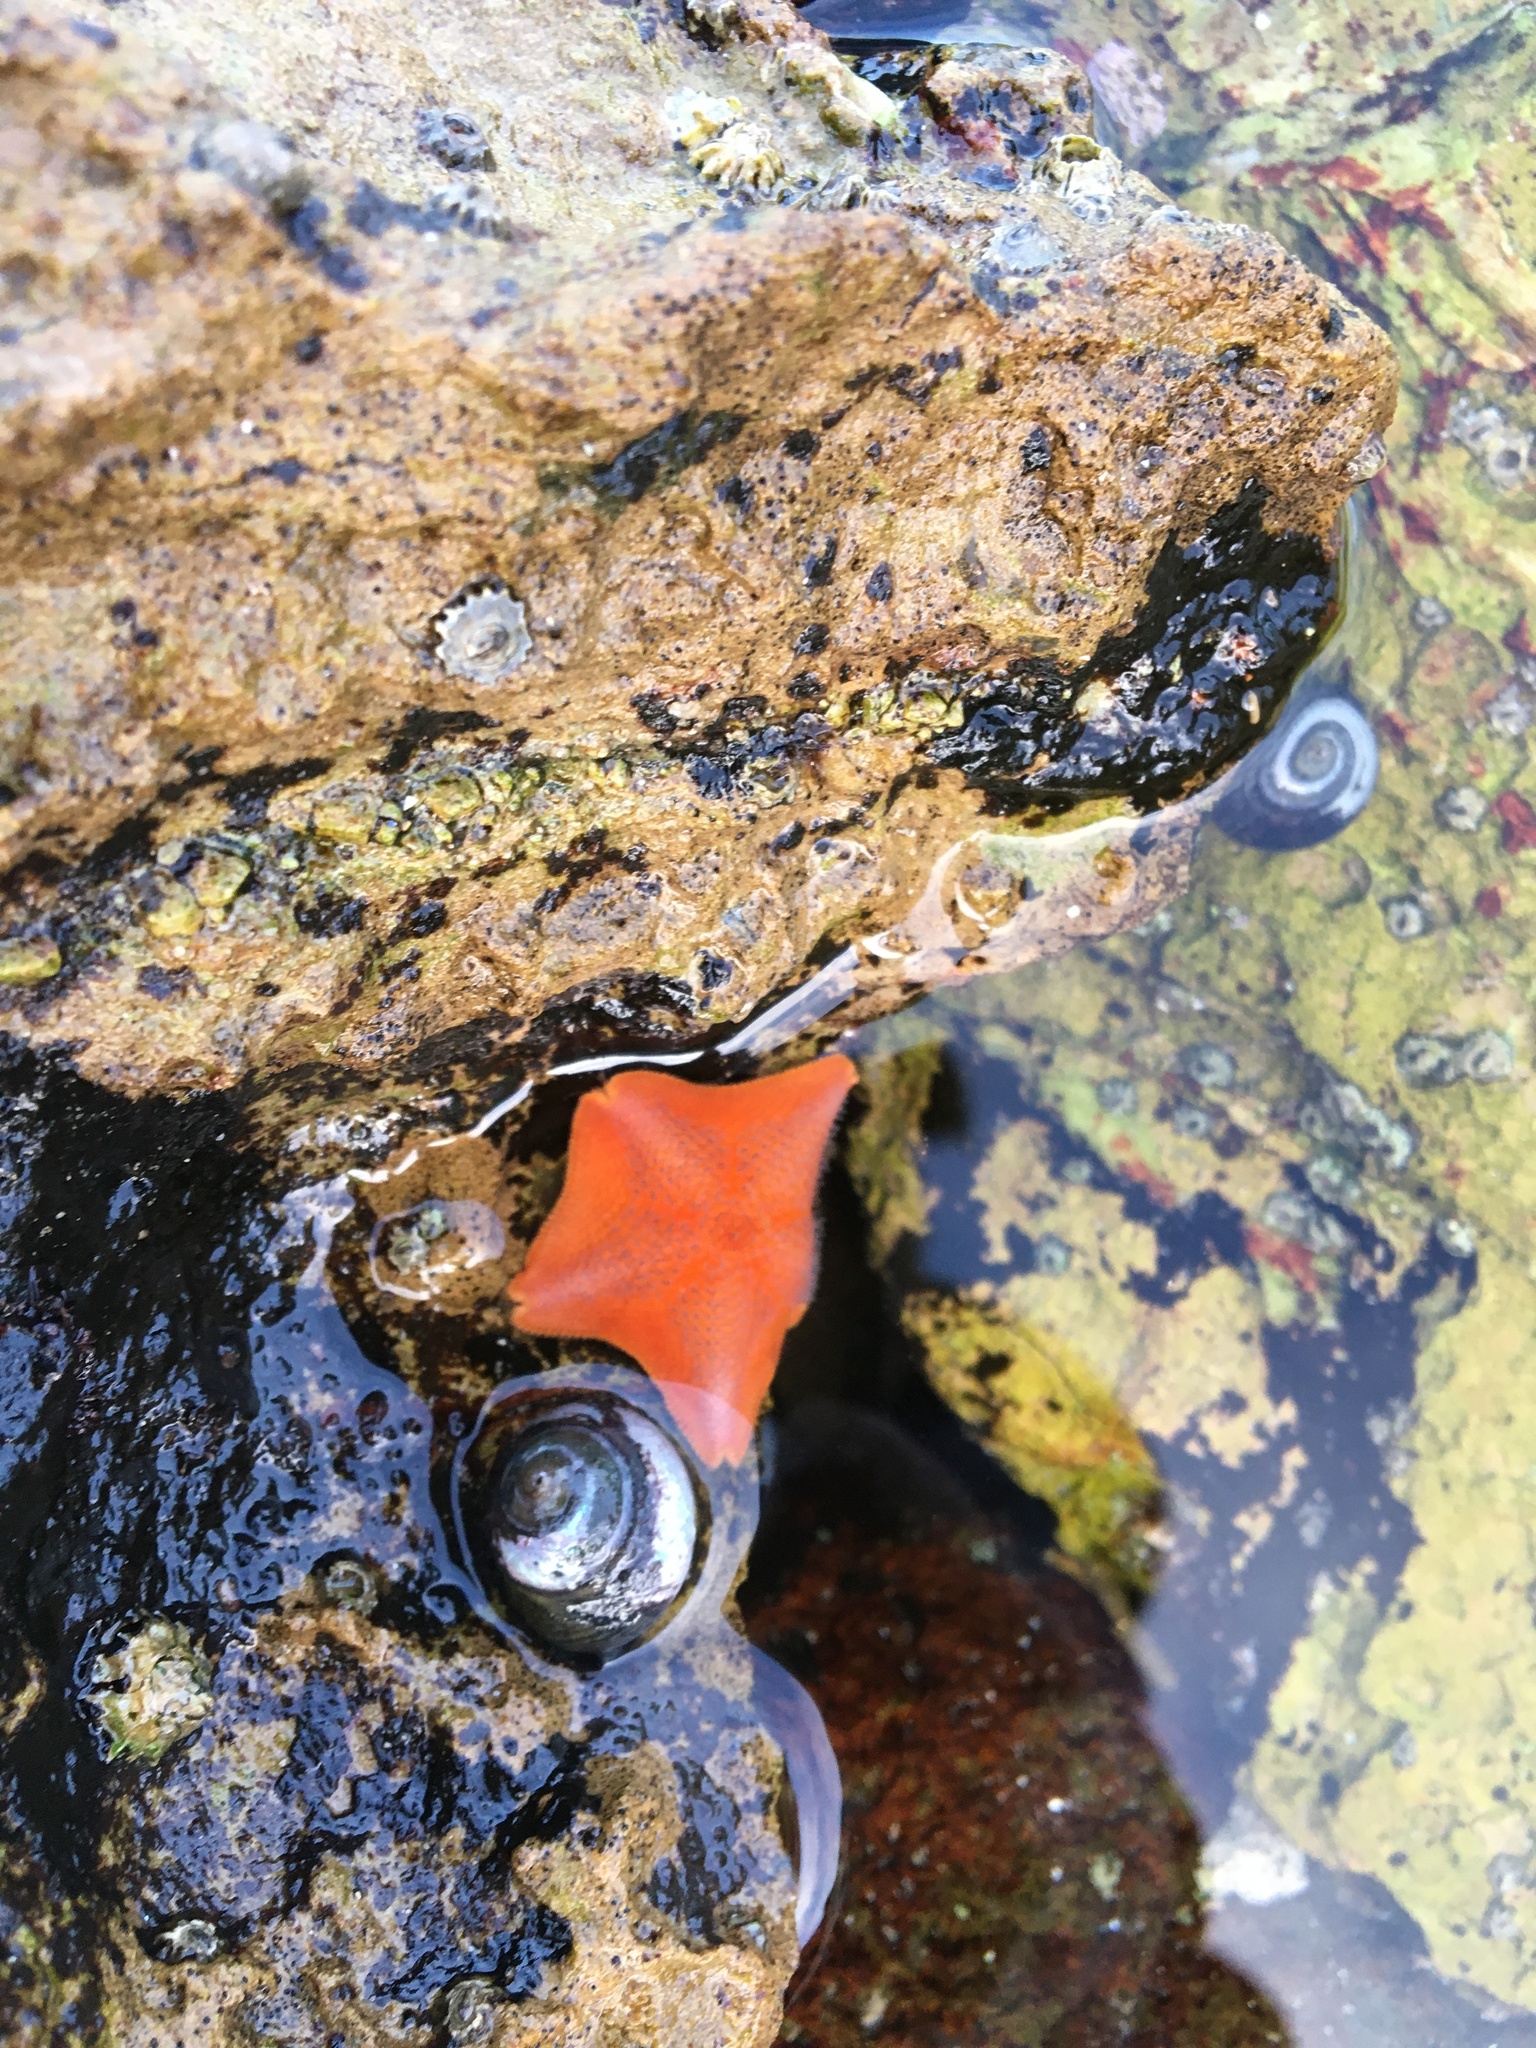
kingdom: Animalia
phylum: Echinodermata
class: Asteroidea
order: Valvatida
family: Asterinidae
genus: Patiria
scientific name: Patiria miniata
